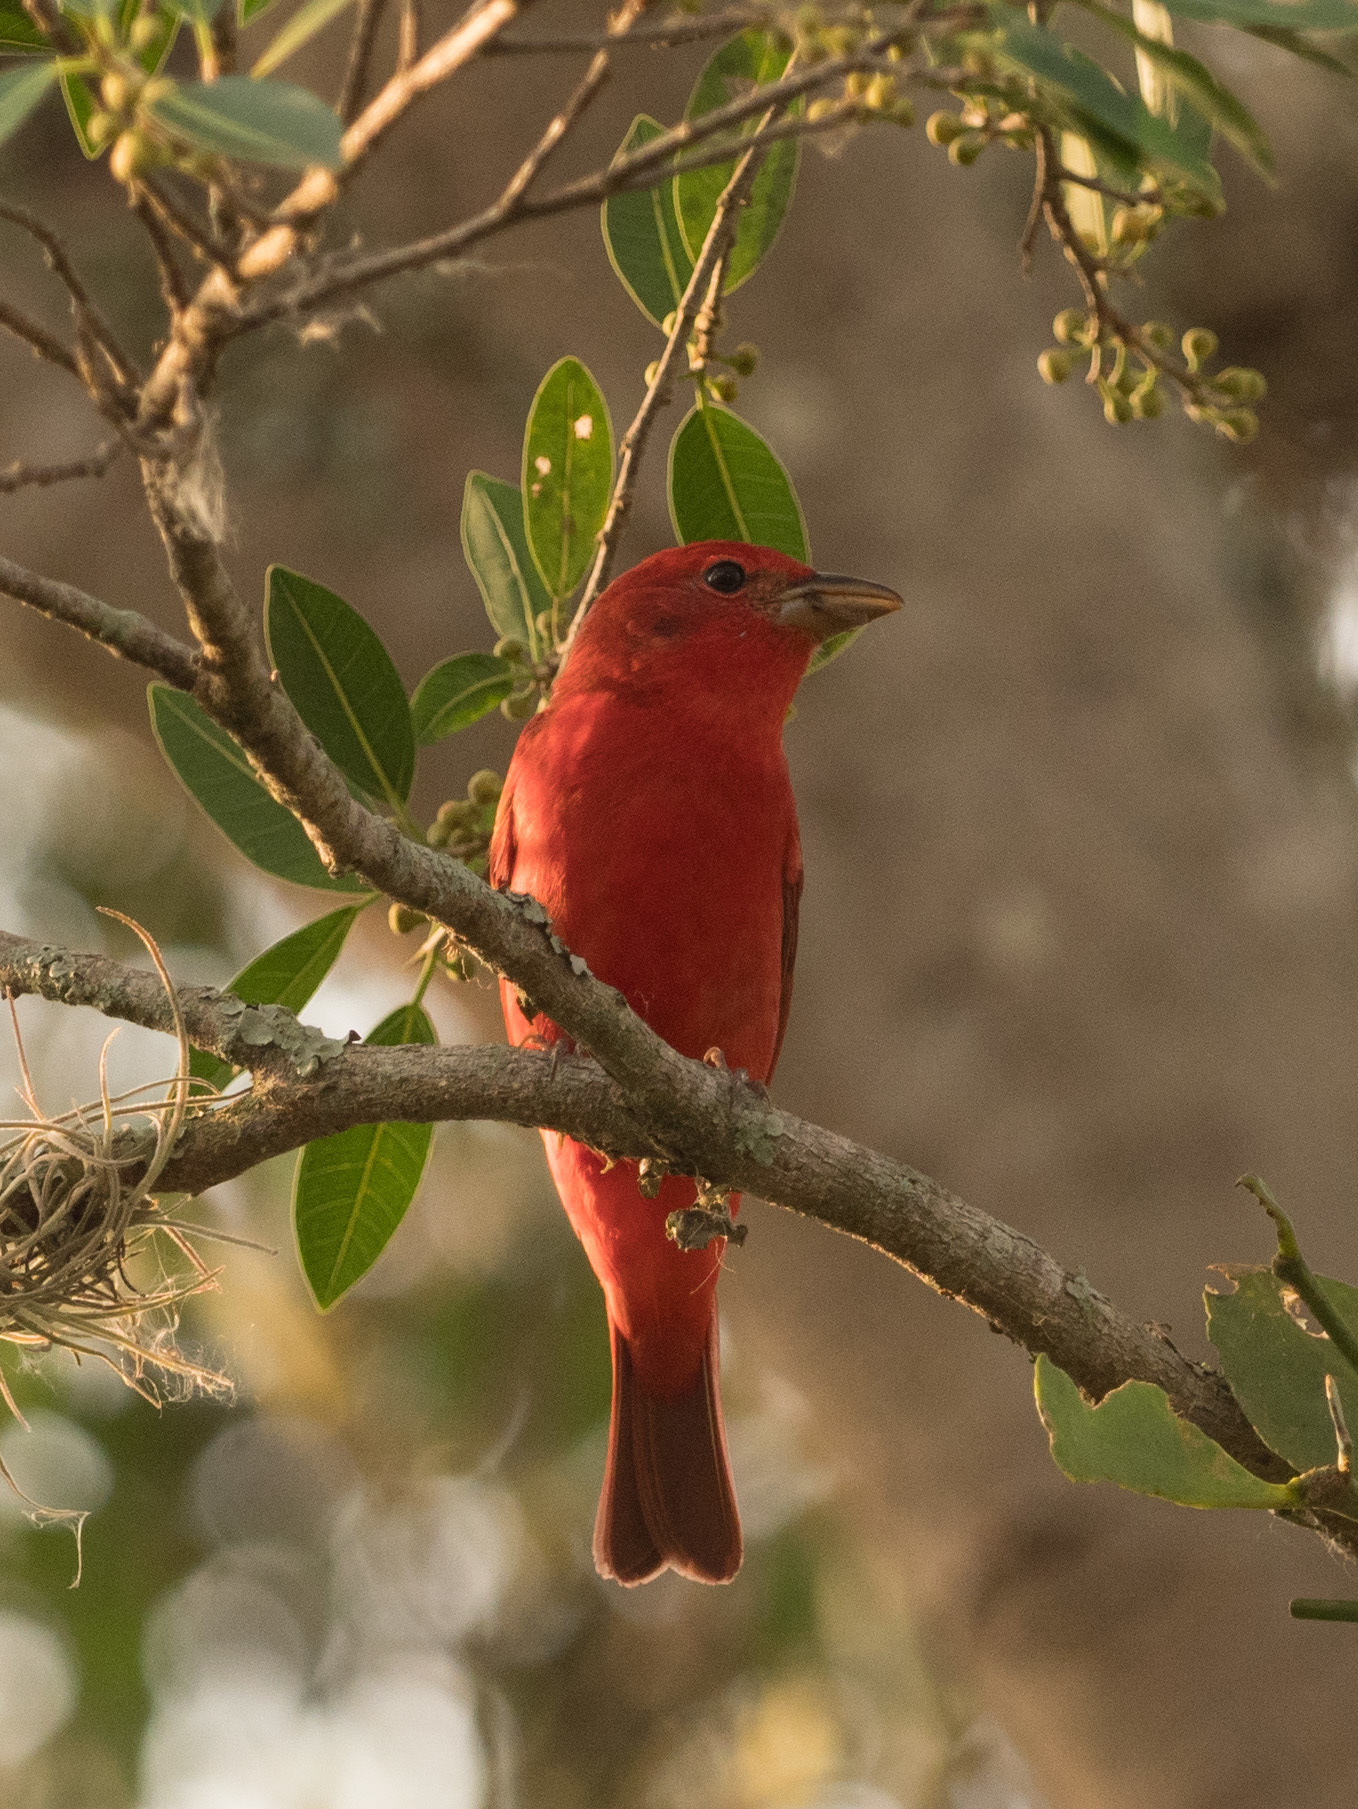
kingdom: Animalia
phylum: Chordata
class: Aves
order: Passeriformes
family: Cardinalidae
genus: Piranga
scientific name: Piranga rubra
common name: Summer tanager
